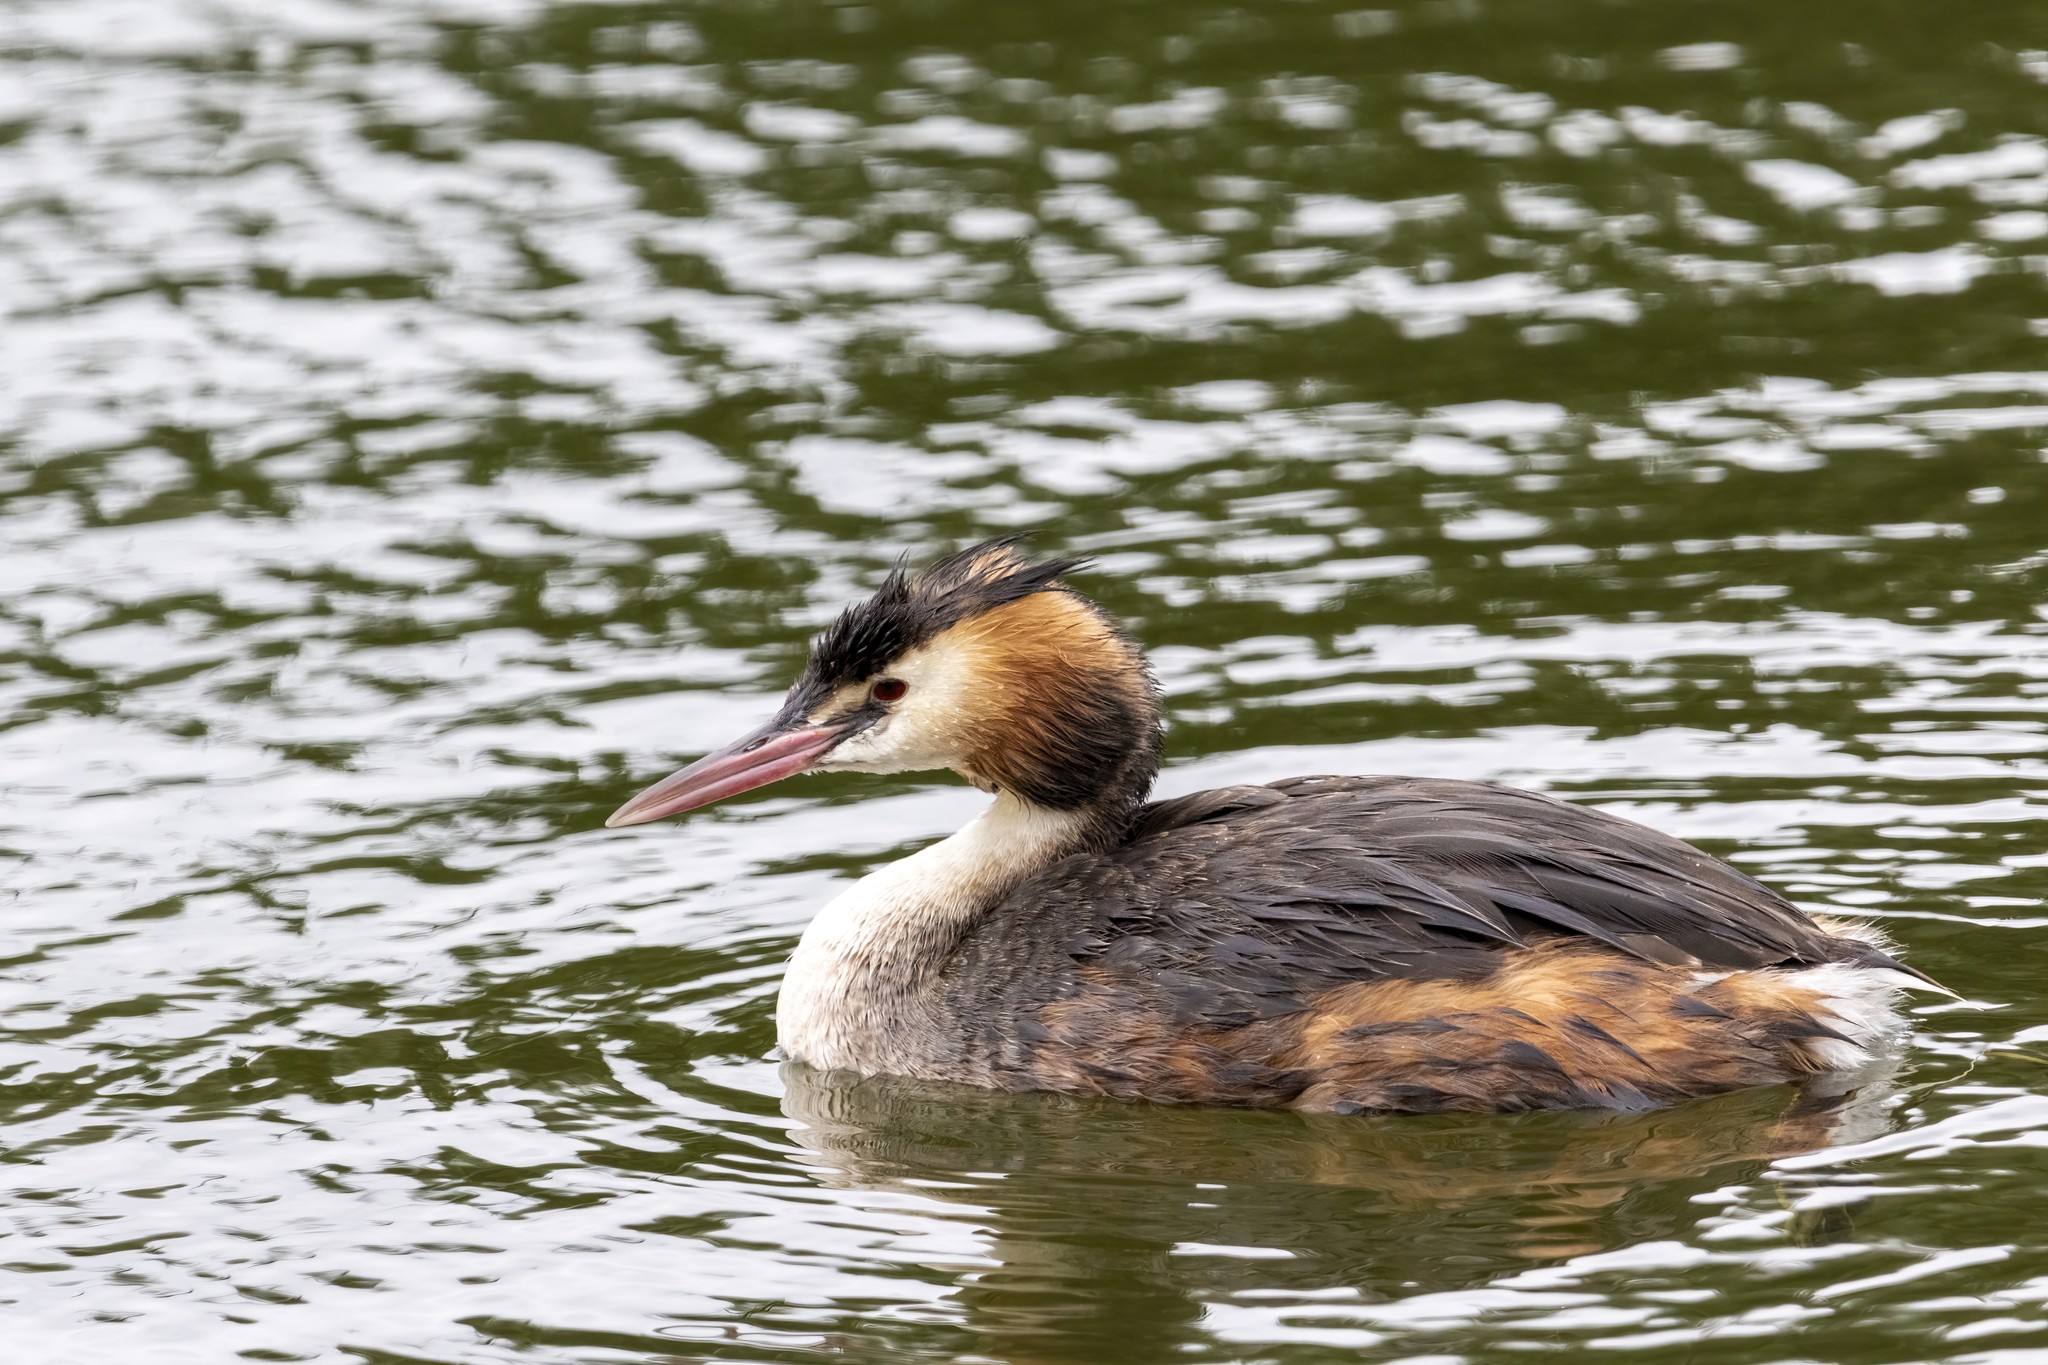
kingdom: Animalia
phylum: Chordata
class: Aves
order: Podicipediformes
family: Podicipedidae
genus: Podiceps
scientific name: Podiceps cristatus
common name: Great crested grebe
